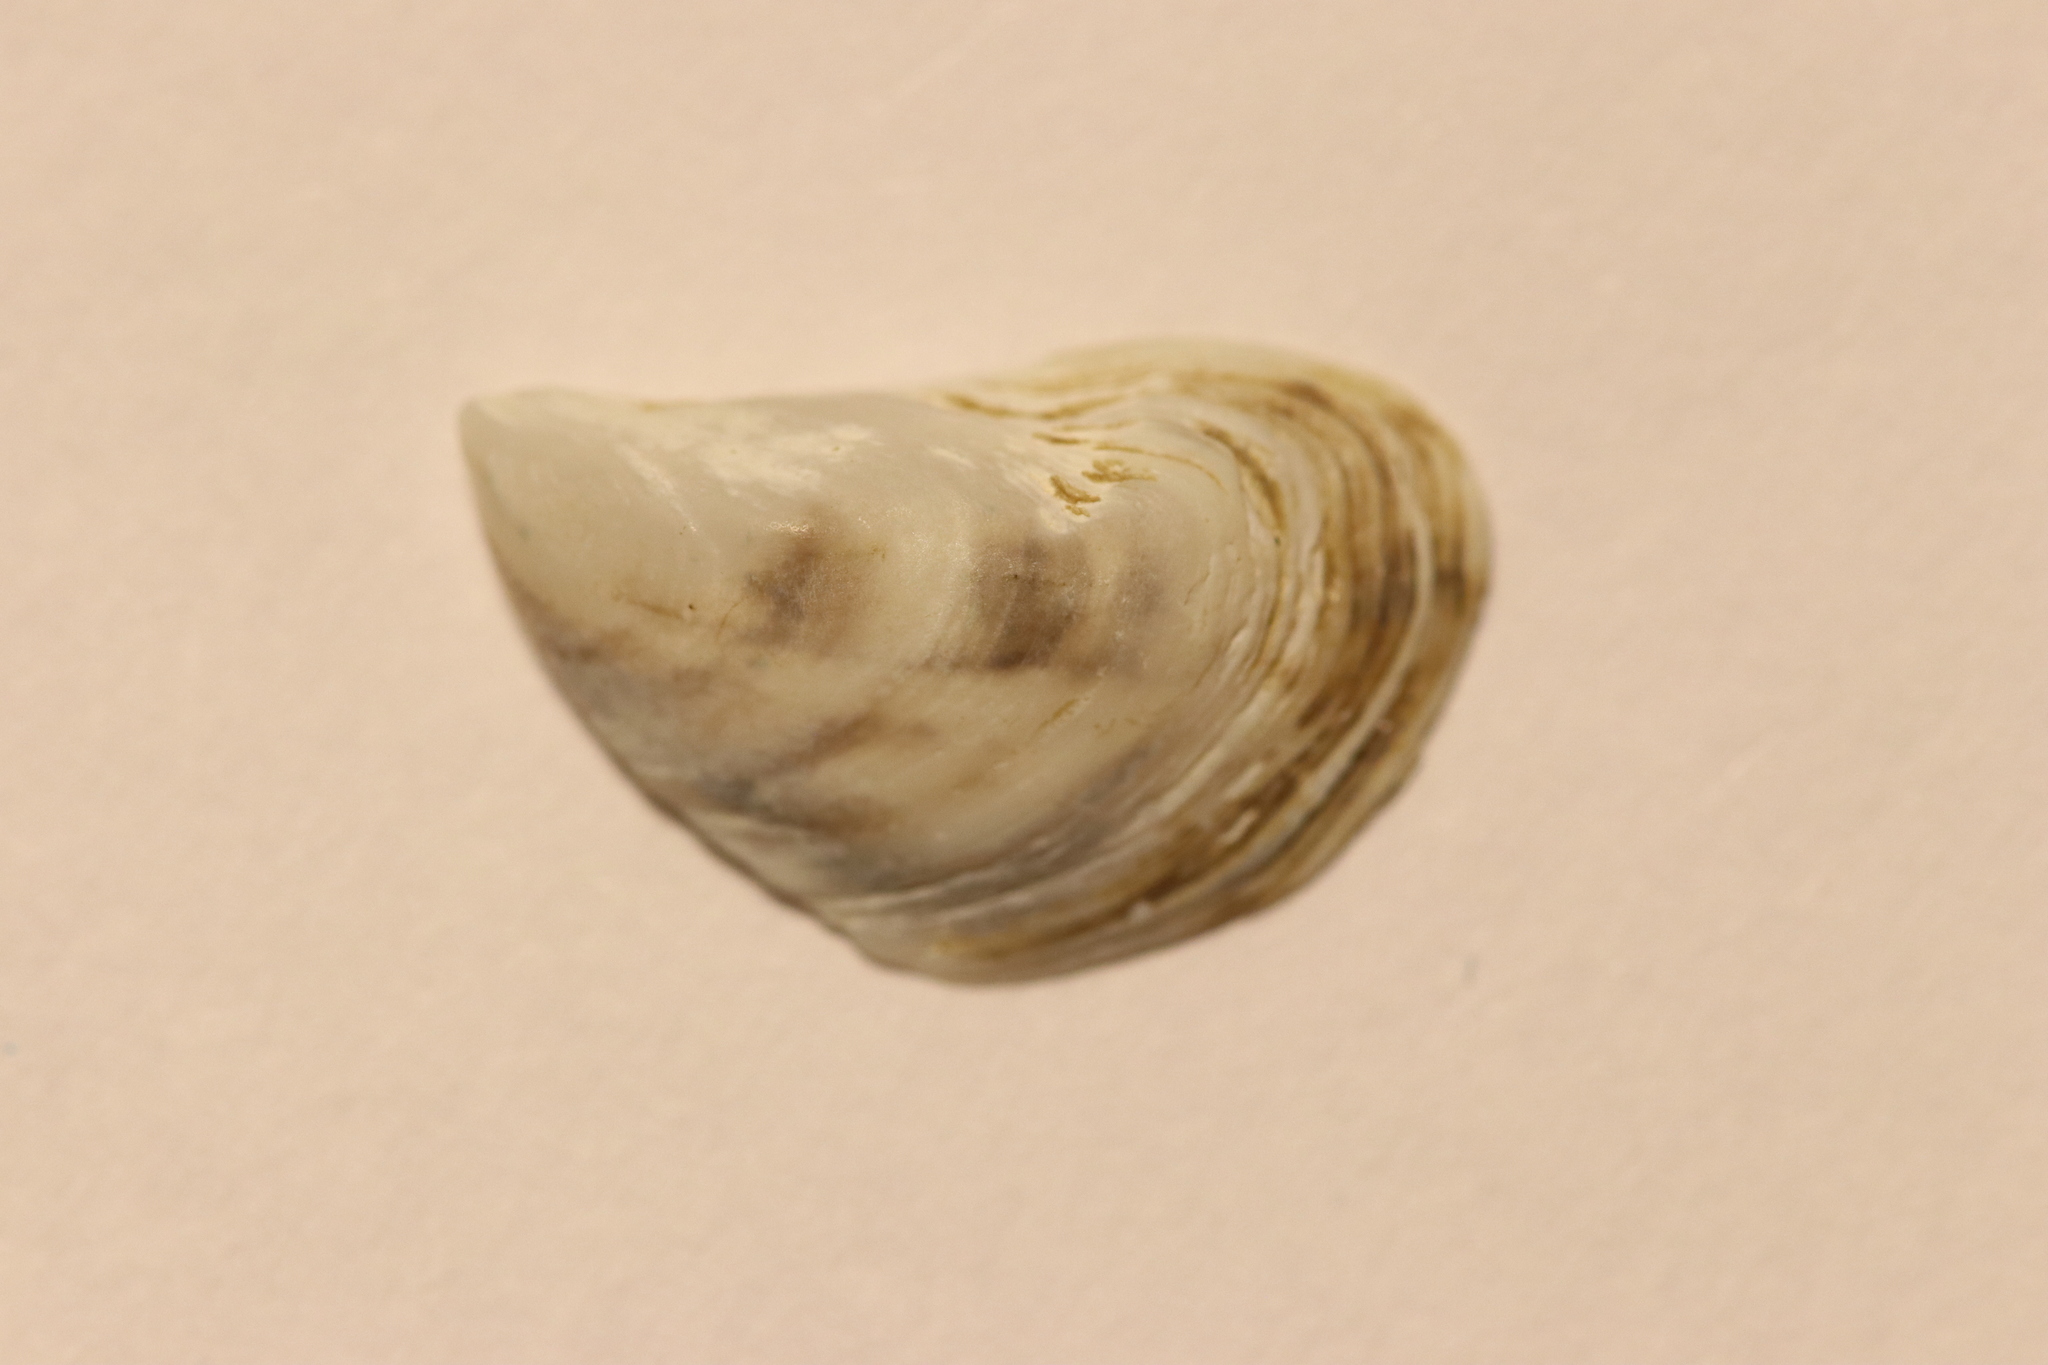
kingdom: Animalia
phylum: Mollusca
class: Bivalvia
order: Myida
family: Dreissenidae
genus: Dreissena
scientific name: Dreissena bugensis
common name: Quagga mussel
